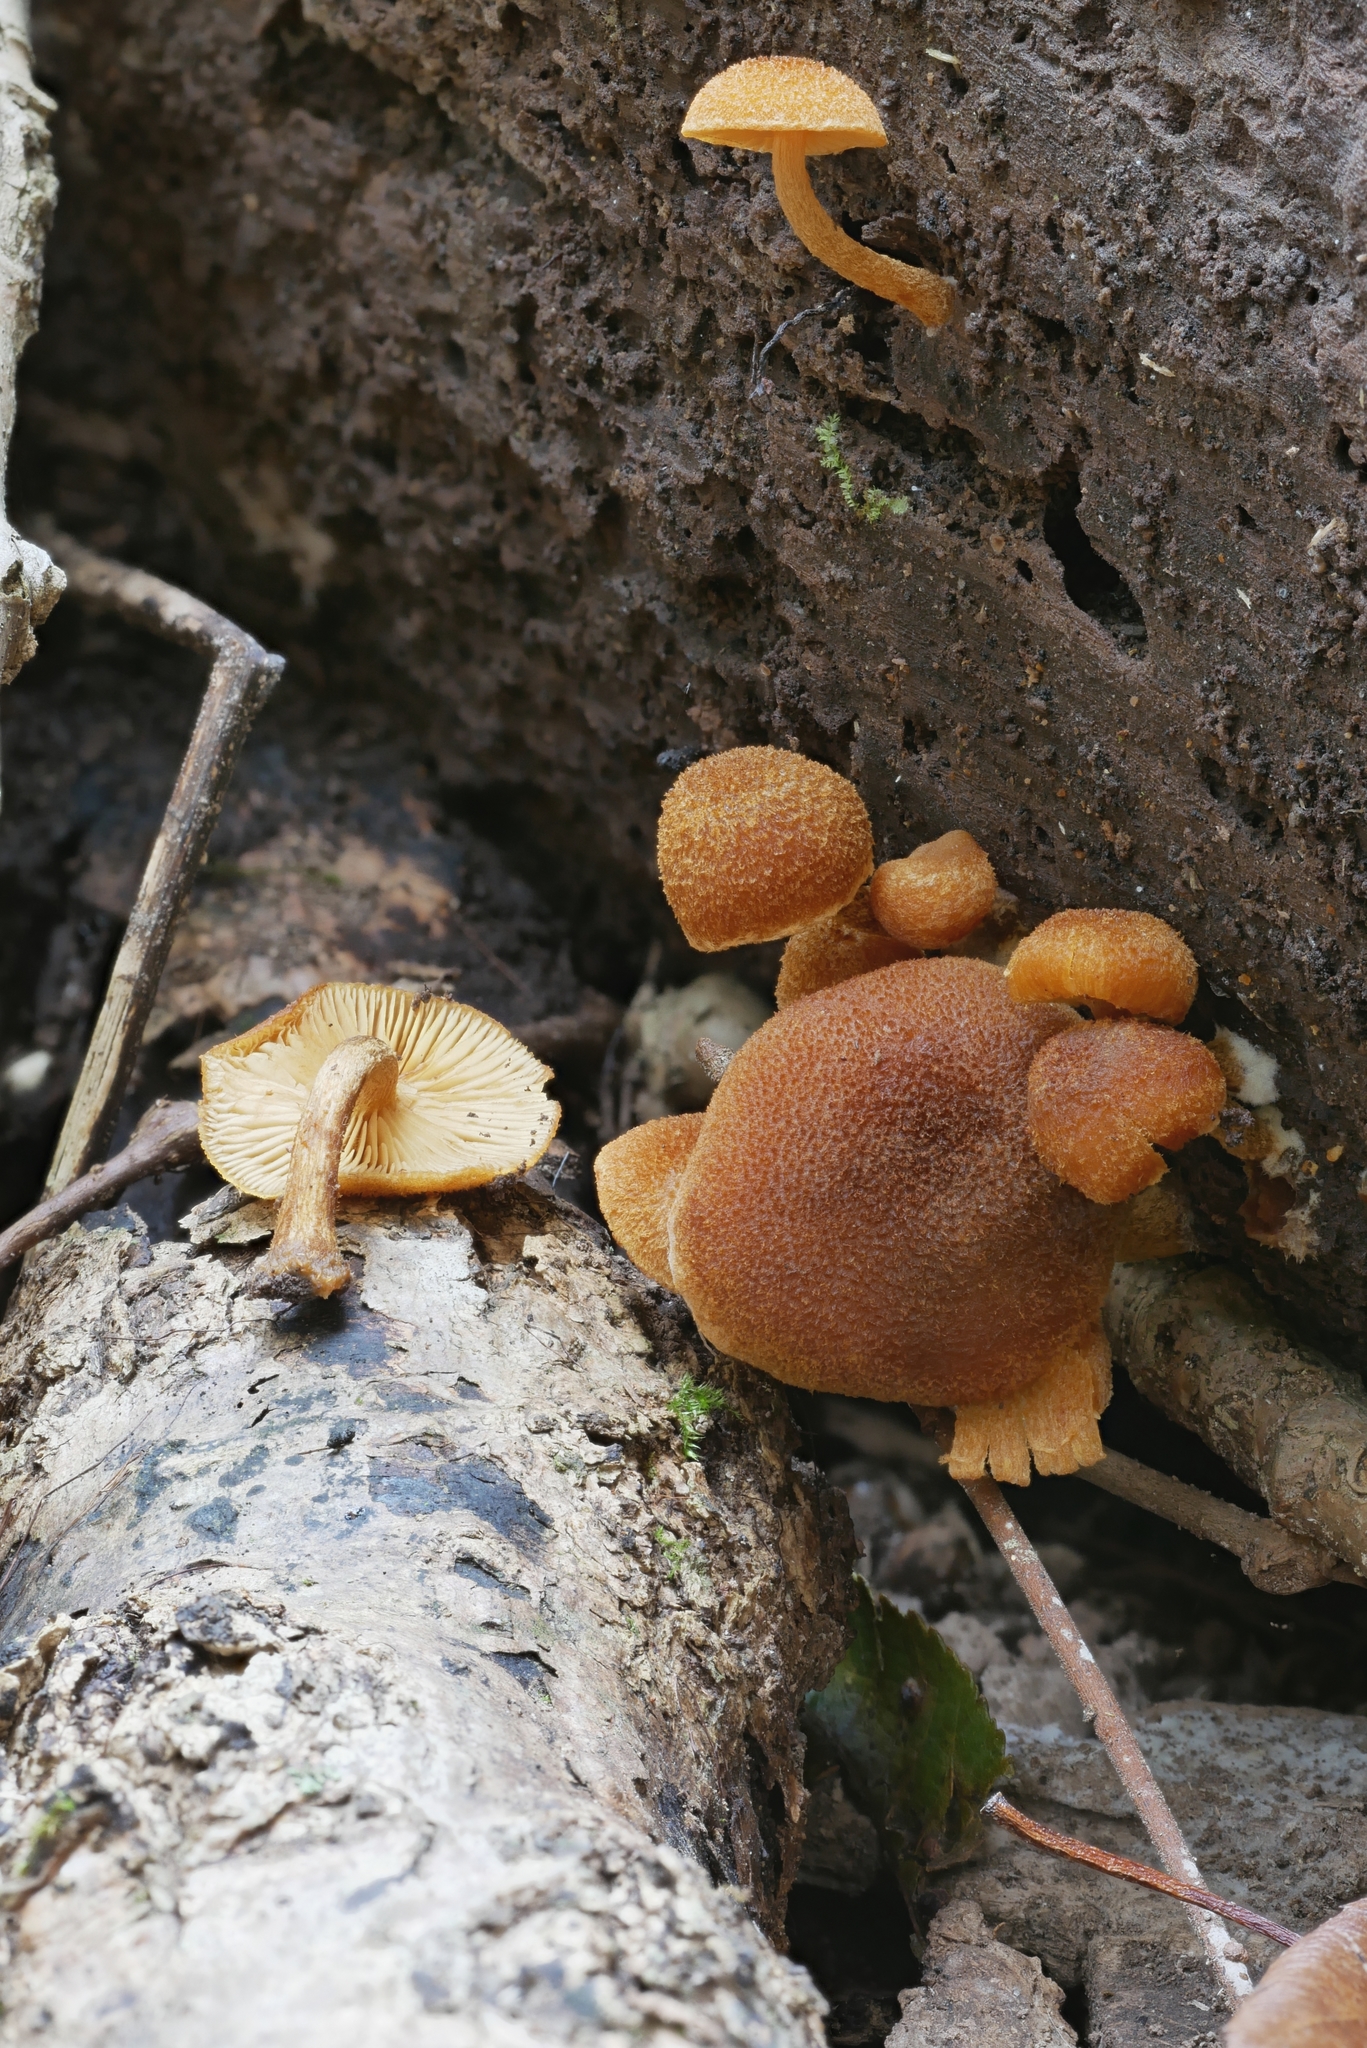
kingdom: Fungi
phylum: Basidiomycota
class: Agaricomycetes
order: Agaricales
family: Tubariaceae
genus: Phaeomarasmius
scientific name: Phaeomarasmius proximans
